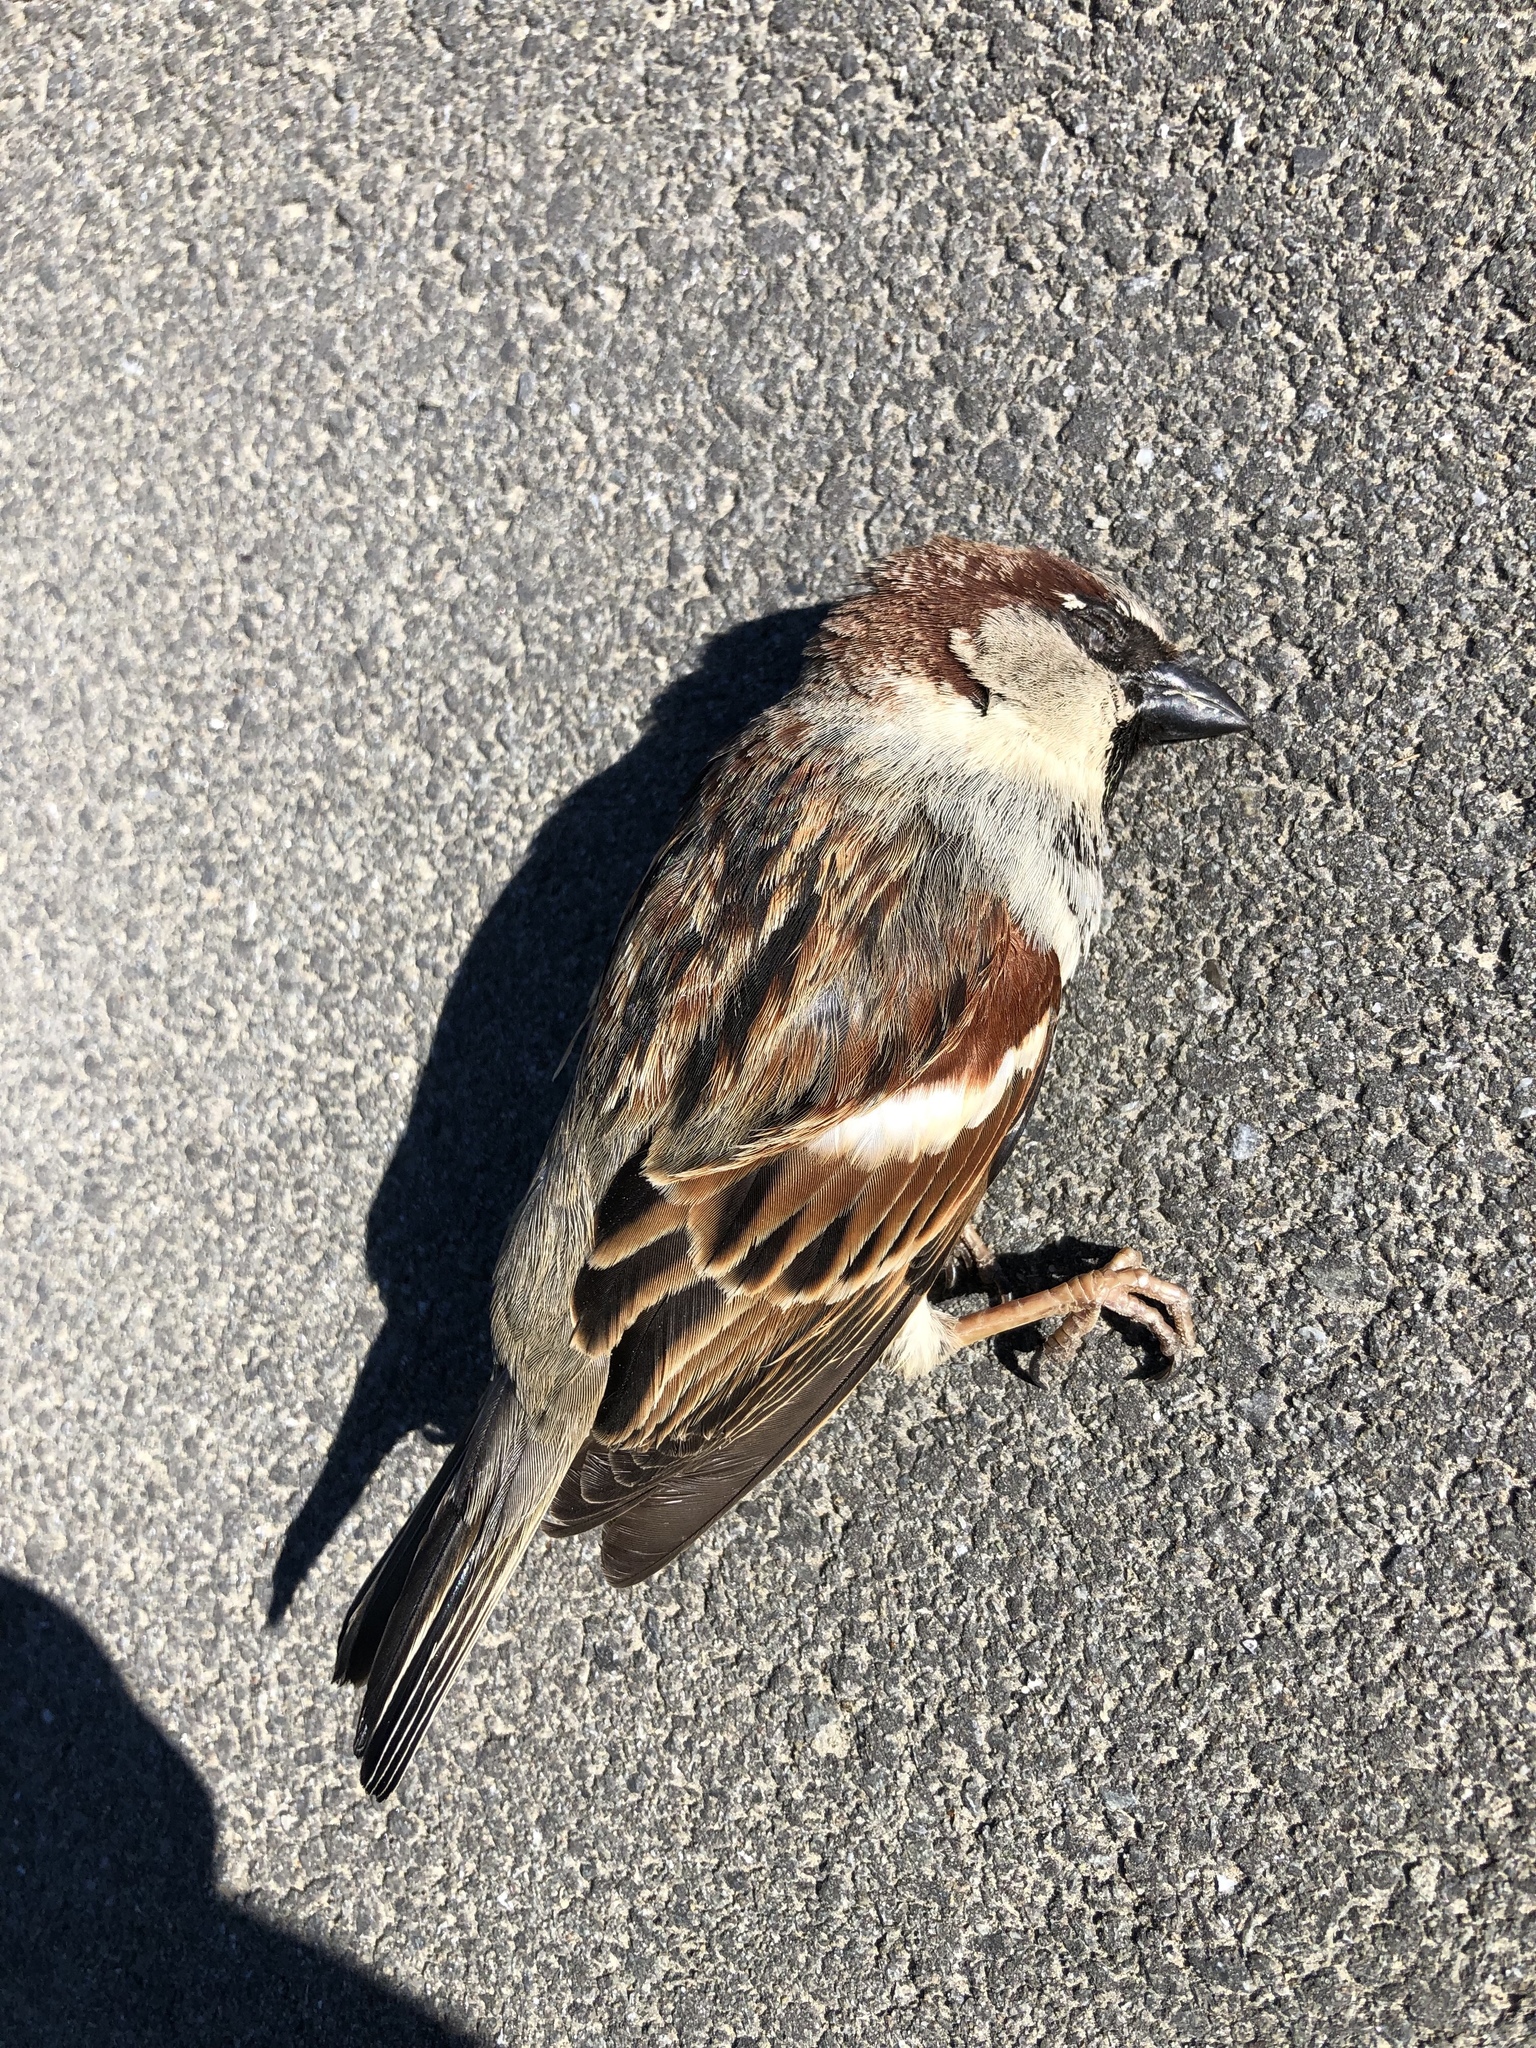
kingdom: Animalia
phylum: Chordata
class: Aves
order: Passeriformes
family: Passeridae
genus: Passer
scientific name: Passer domesticus
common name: House sparrow
